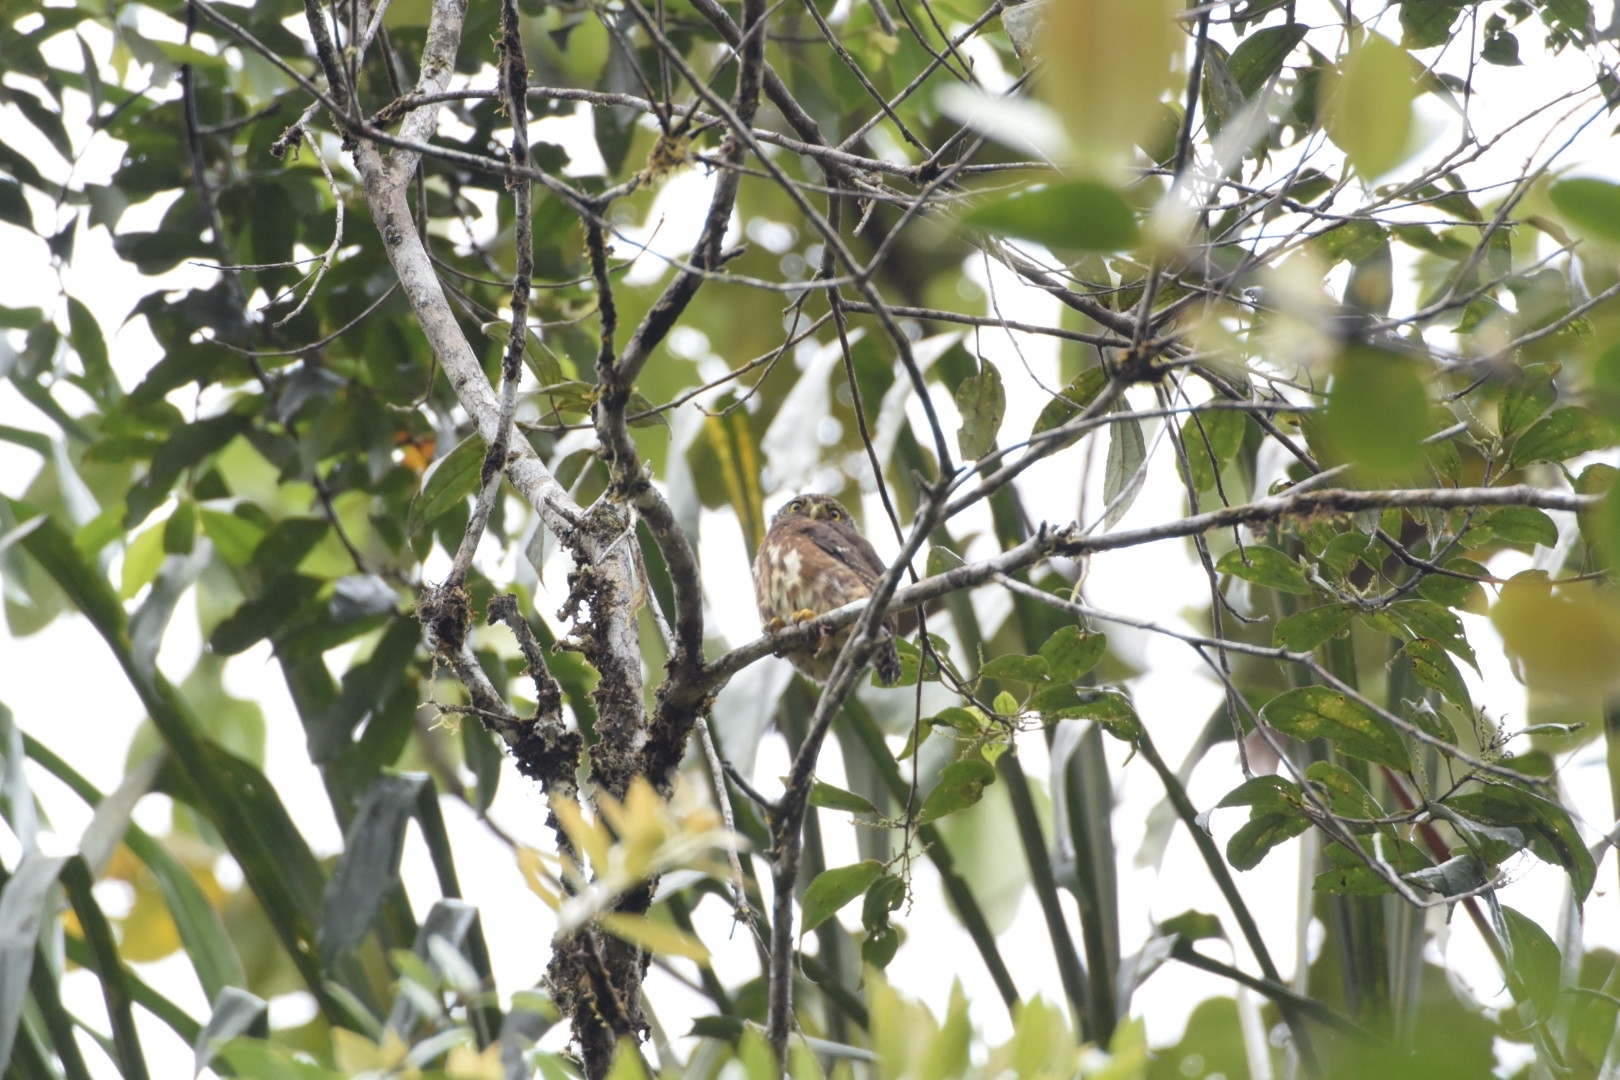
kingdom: Animalia
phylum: Chordata
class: Aves
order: Strigiformes
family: Strigidae
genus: Glaucidium
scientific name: Glaucidium nubicola
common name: Cloud-forest pygmy owl
